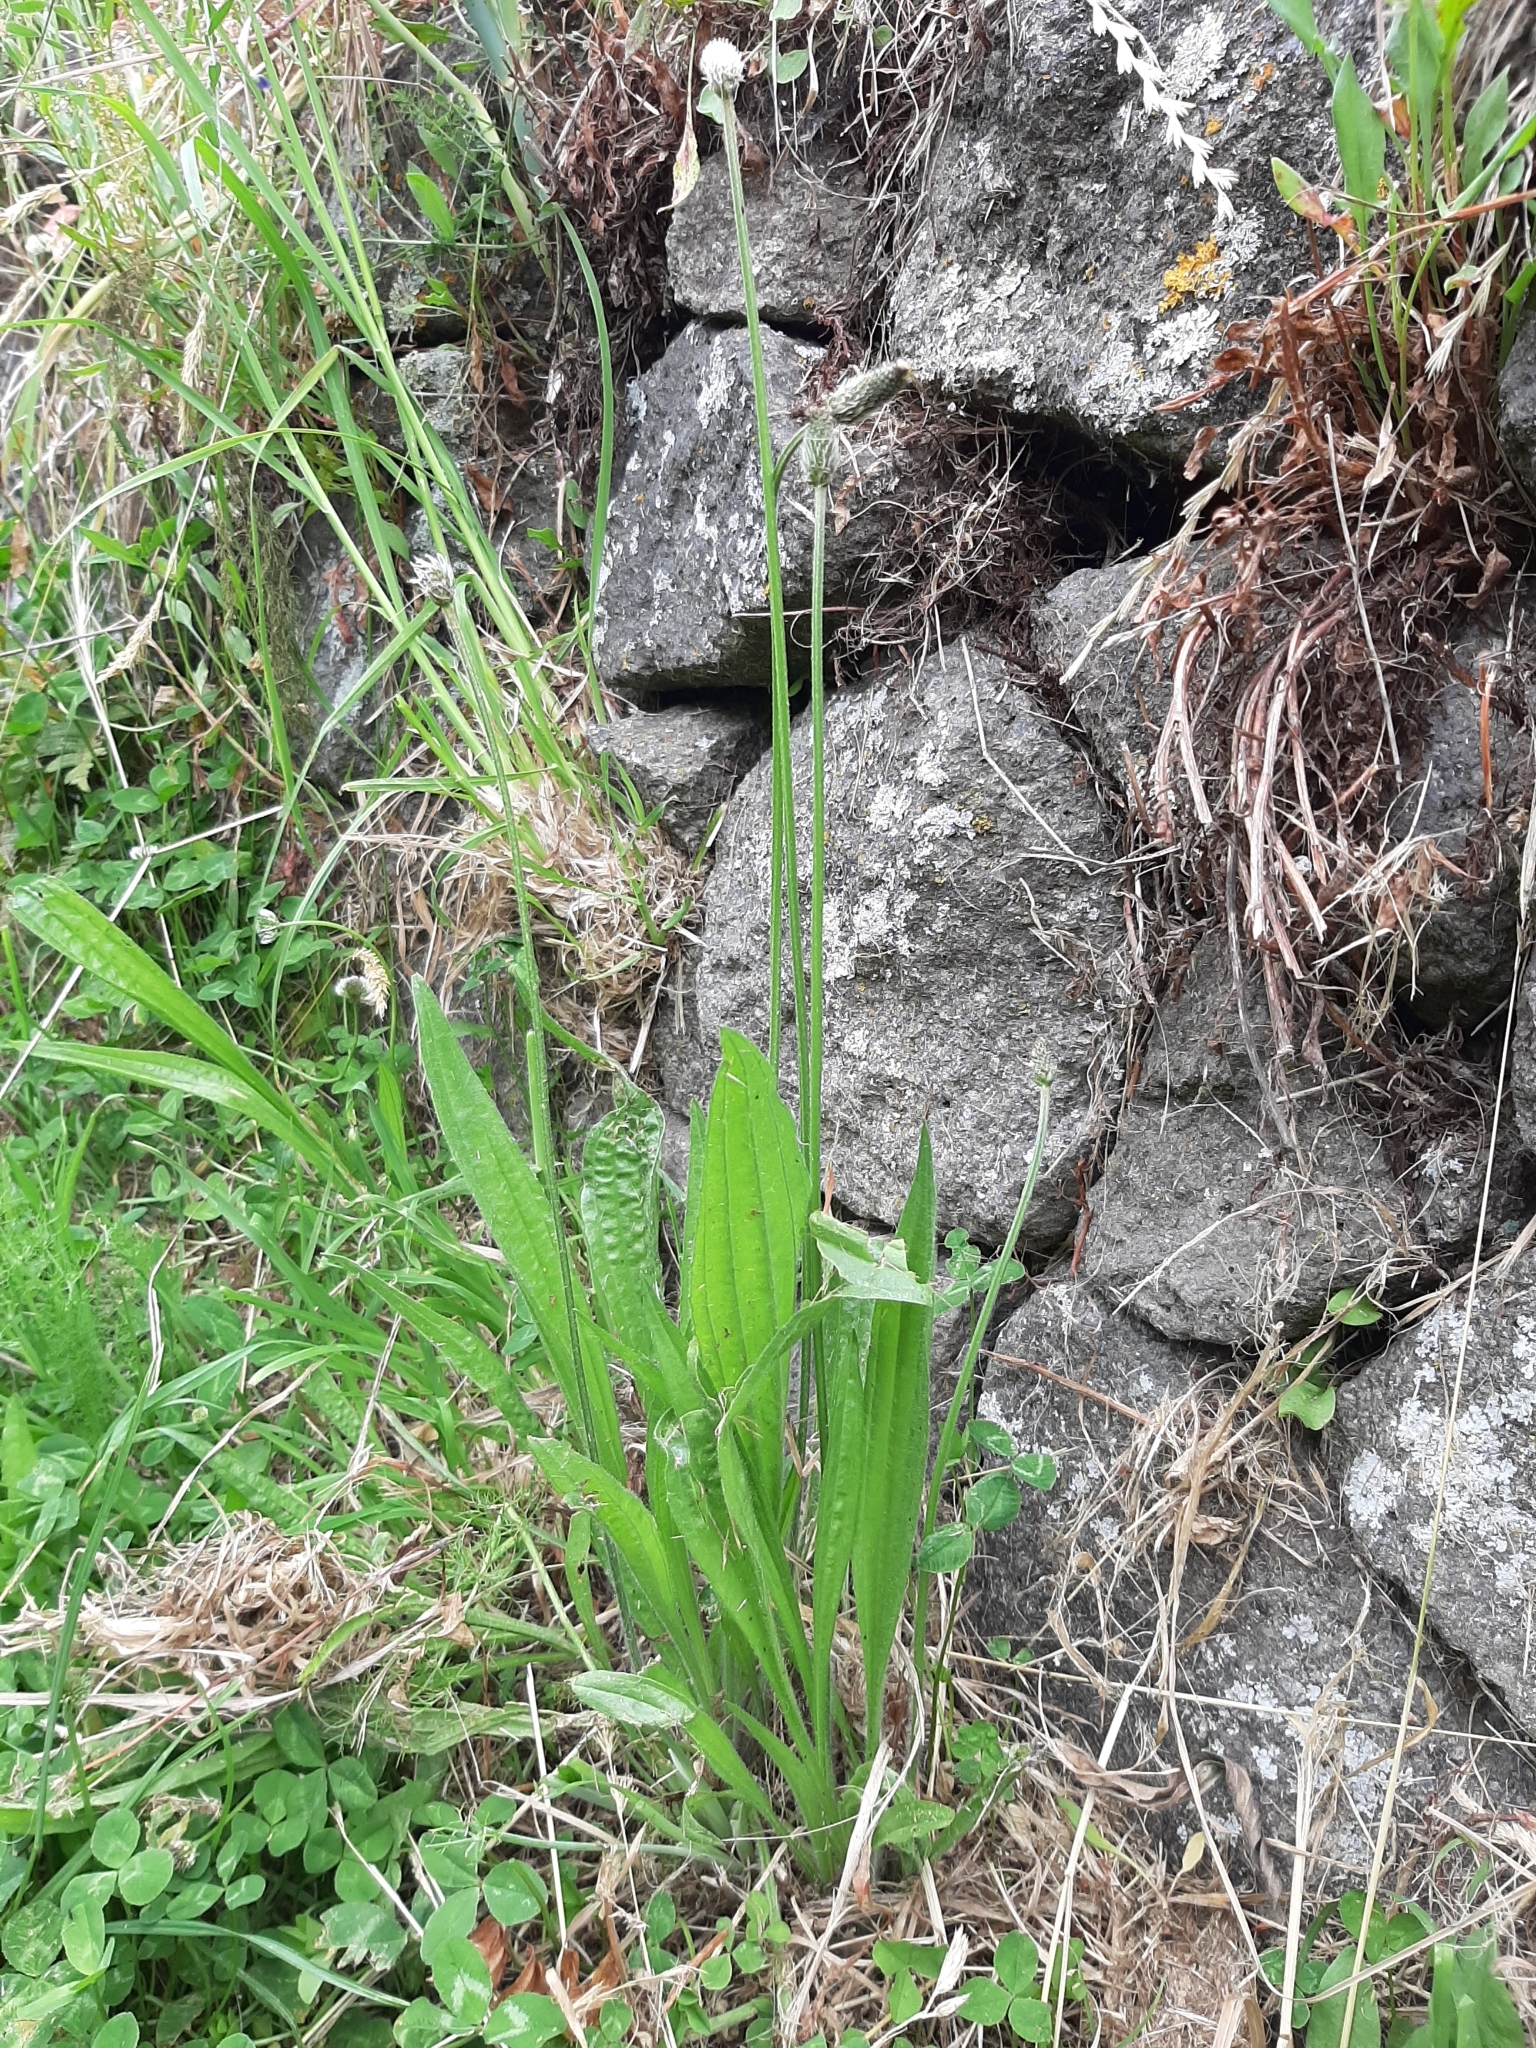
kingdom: Plantae
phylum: Tracheophyta
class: Magnoliopsida
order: Lamiales
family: Plantaginaceae
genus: Plantago
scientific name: Plantago lanceolata
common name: Ribwort plantain
